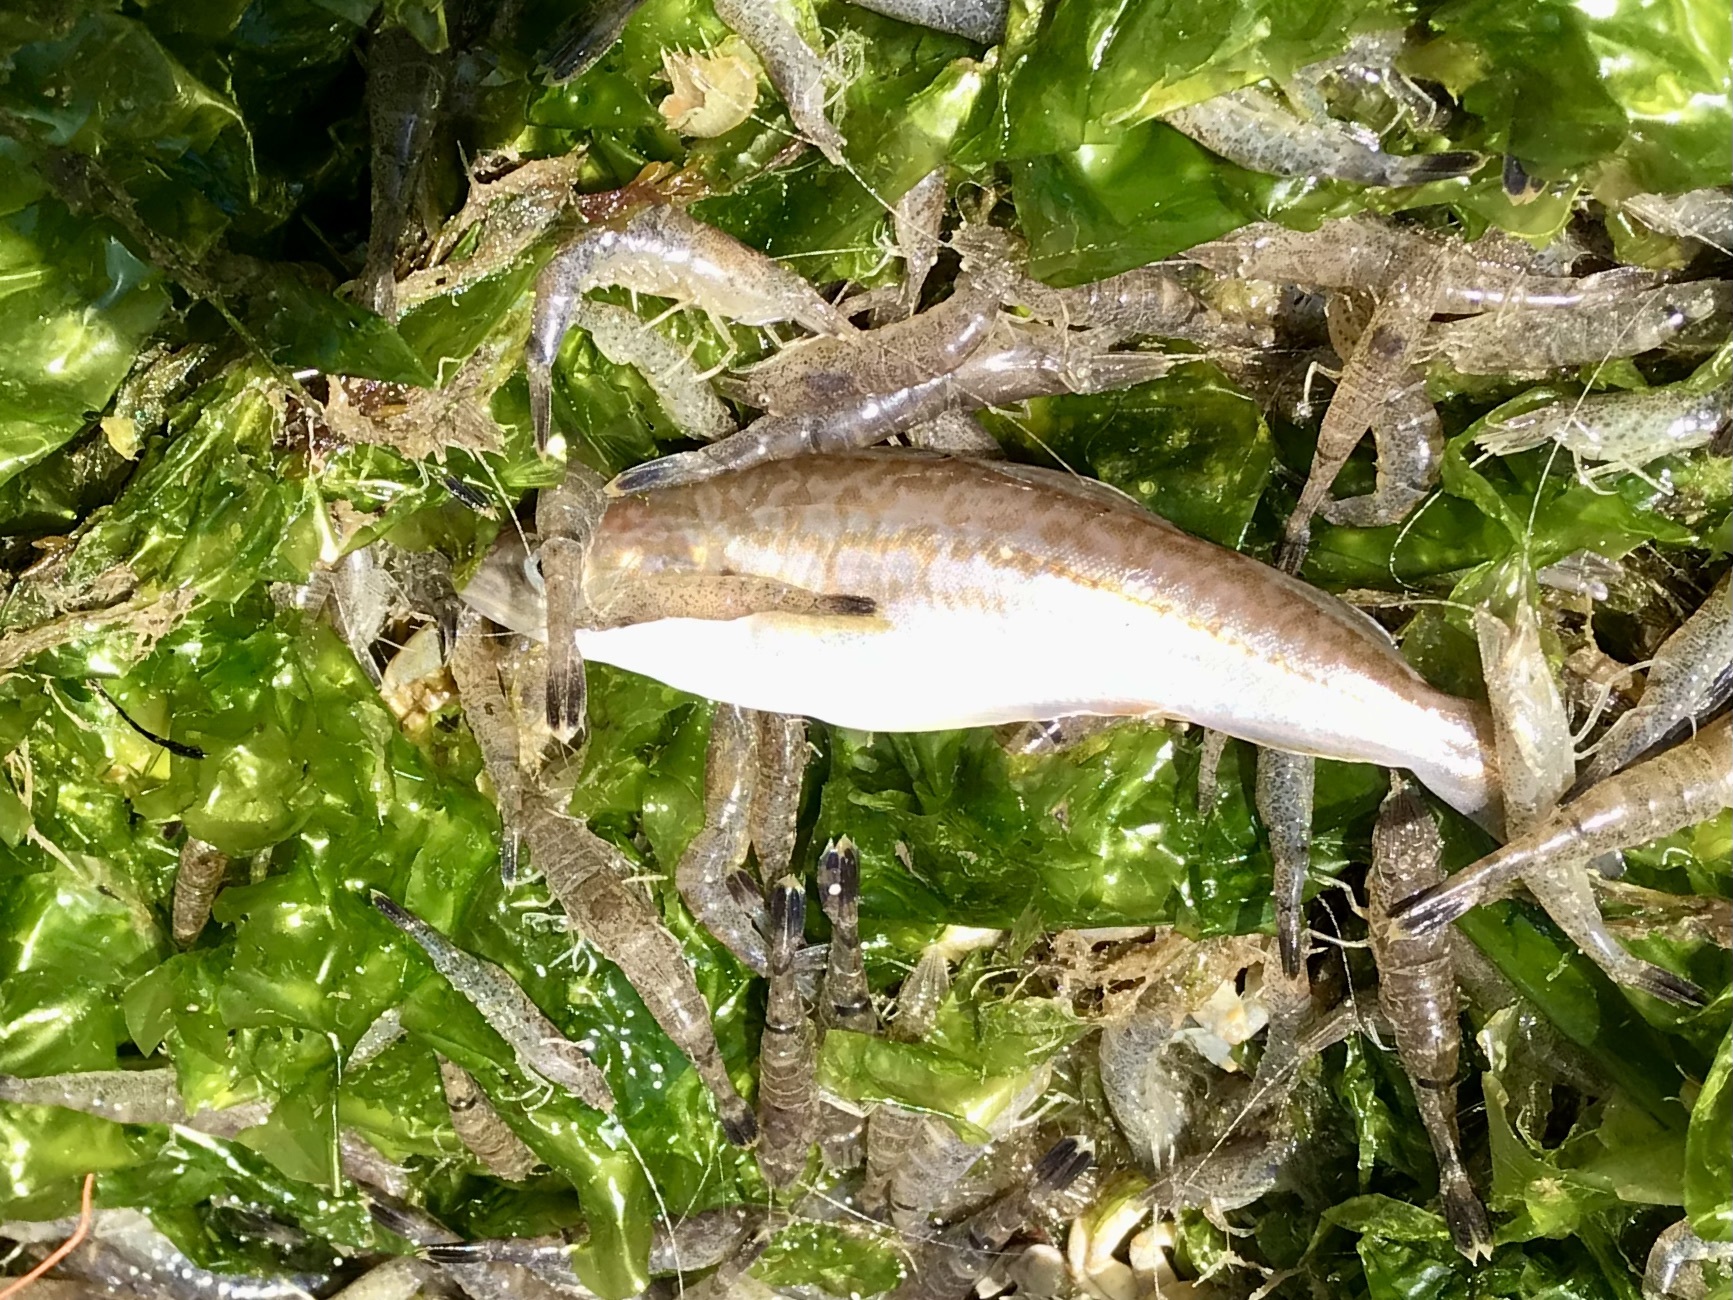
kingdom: Animalia
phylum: Chordata
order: Gadiformes
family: Gadidae
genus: Merlangius
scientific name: Merlangius merlangus
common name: Whiting
